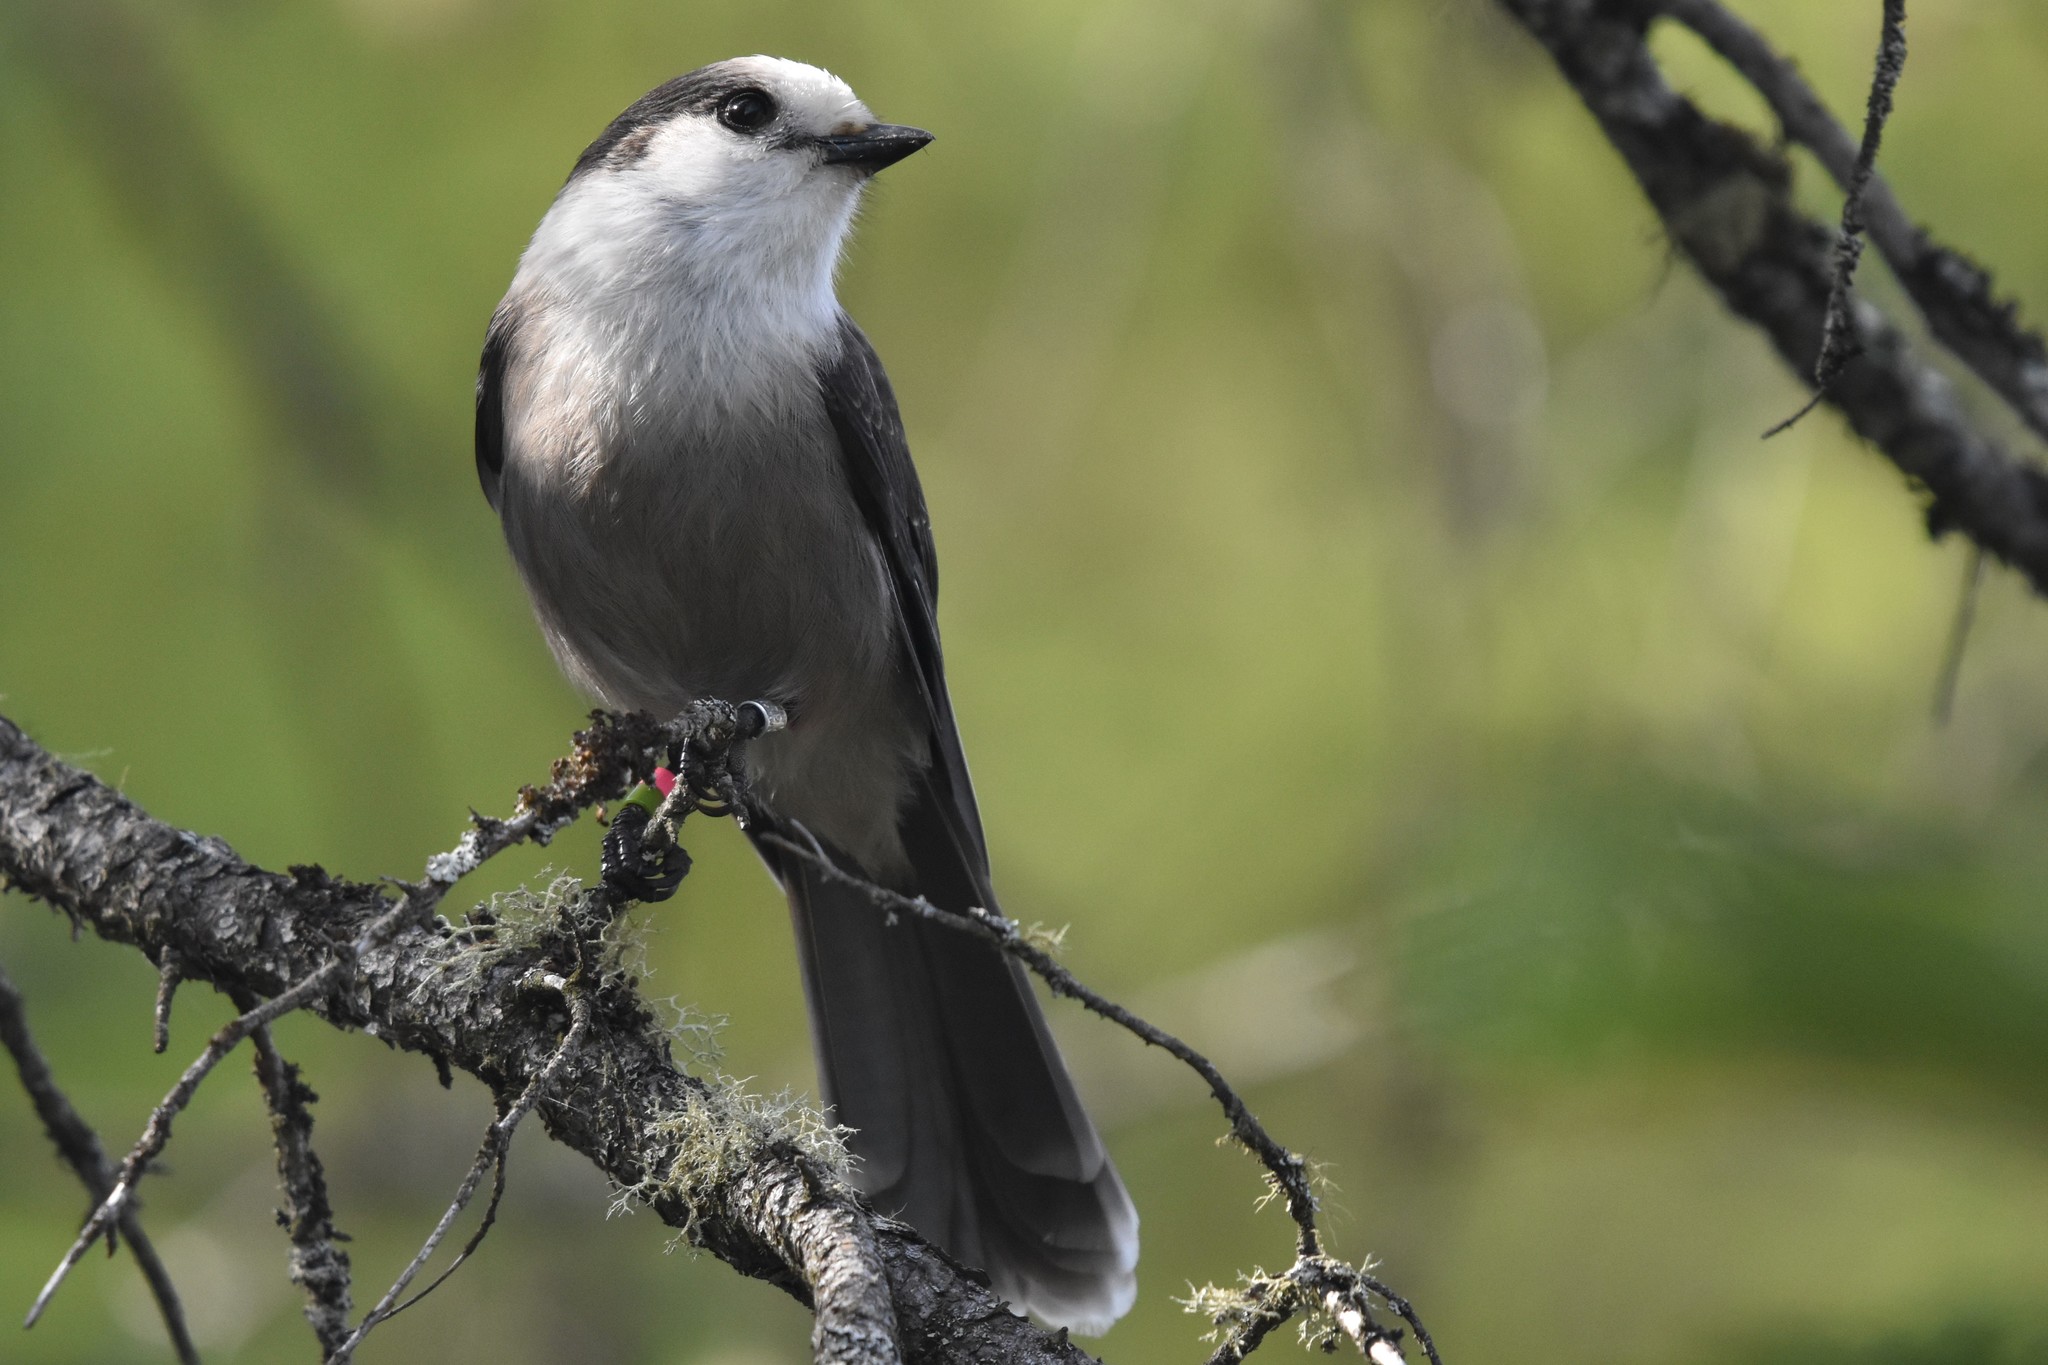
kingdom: Animalia
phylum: Chordata
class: Aves
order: Passeriformes
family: Corvidae
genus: Perisoreus
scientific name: Perisoreus canadensis
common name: Gray jay
